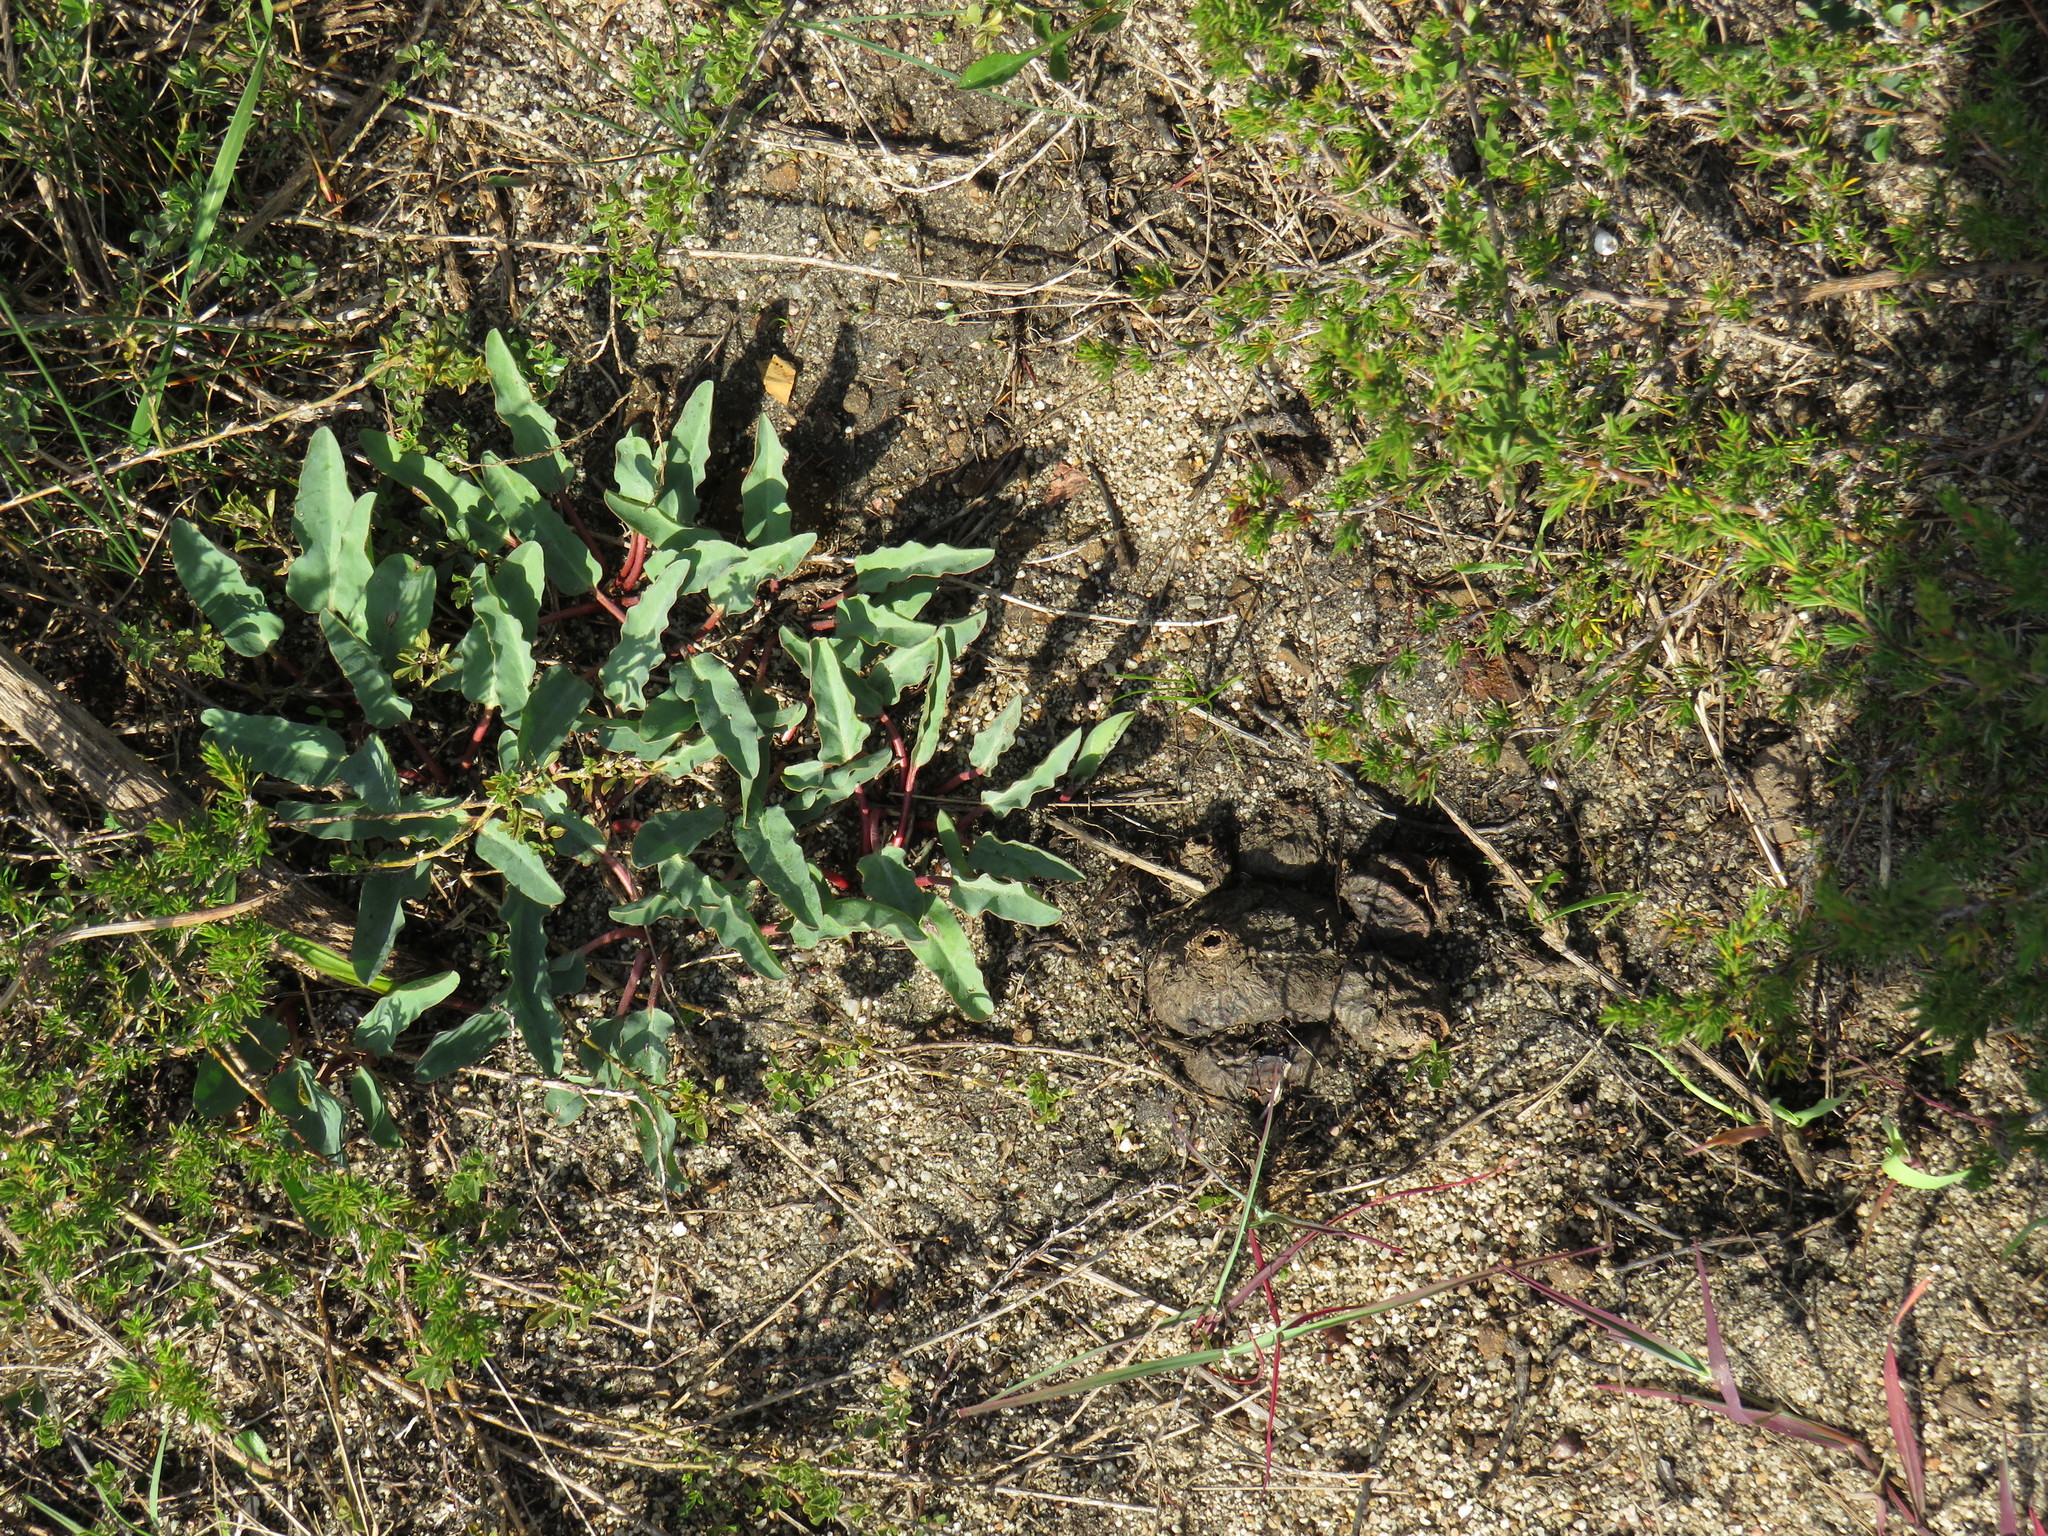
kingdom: Plantae
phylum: Tracheophyta
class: Magnoliopsida
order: Malpighiales
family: Euphorbiaceae
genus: Euphorbia
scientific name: Euphorbia tuberosa
